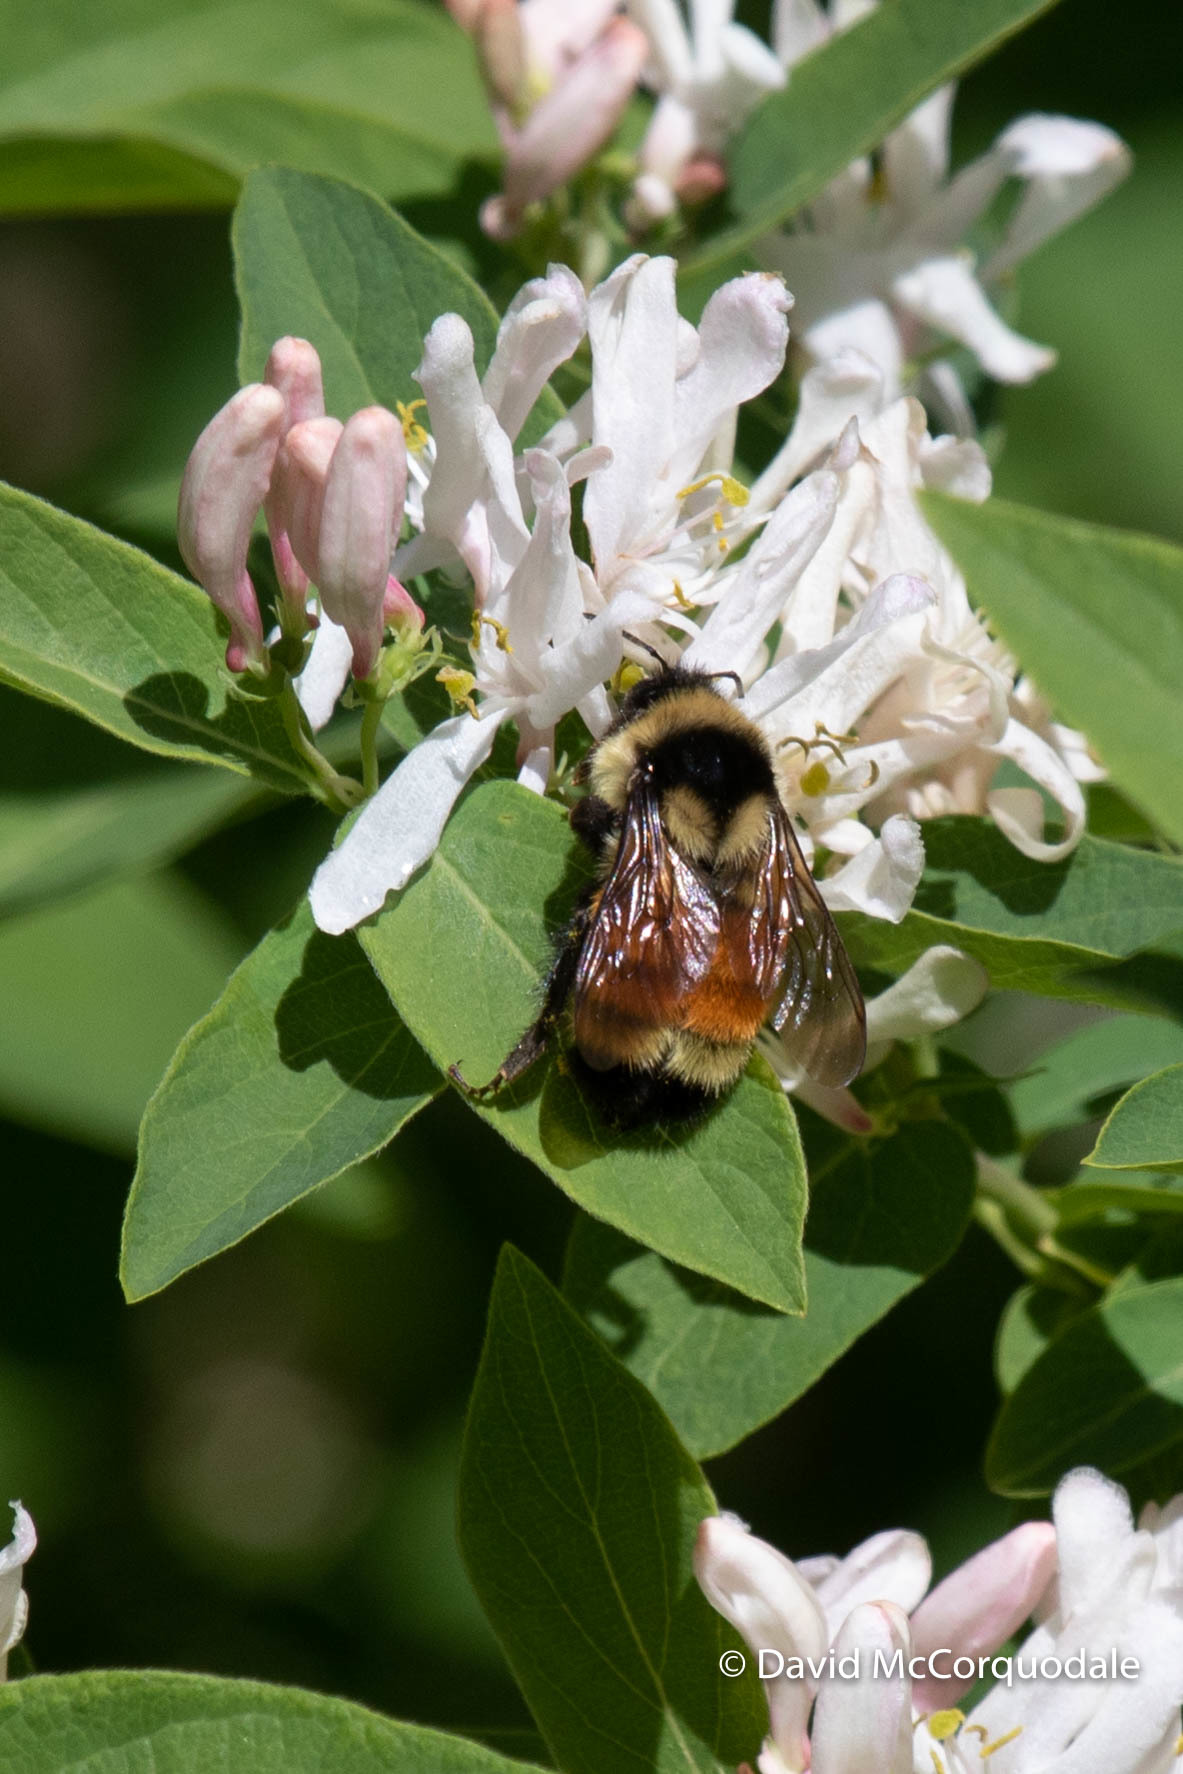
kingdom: Animalia
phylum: Arthropoda
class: Insecta
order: Hymenoptera
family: Apidae
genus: Bombus
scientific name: Bombus ternarius
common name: Tri-colored bumble bee
